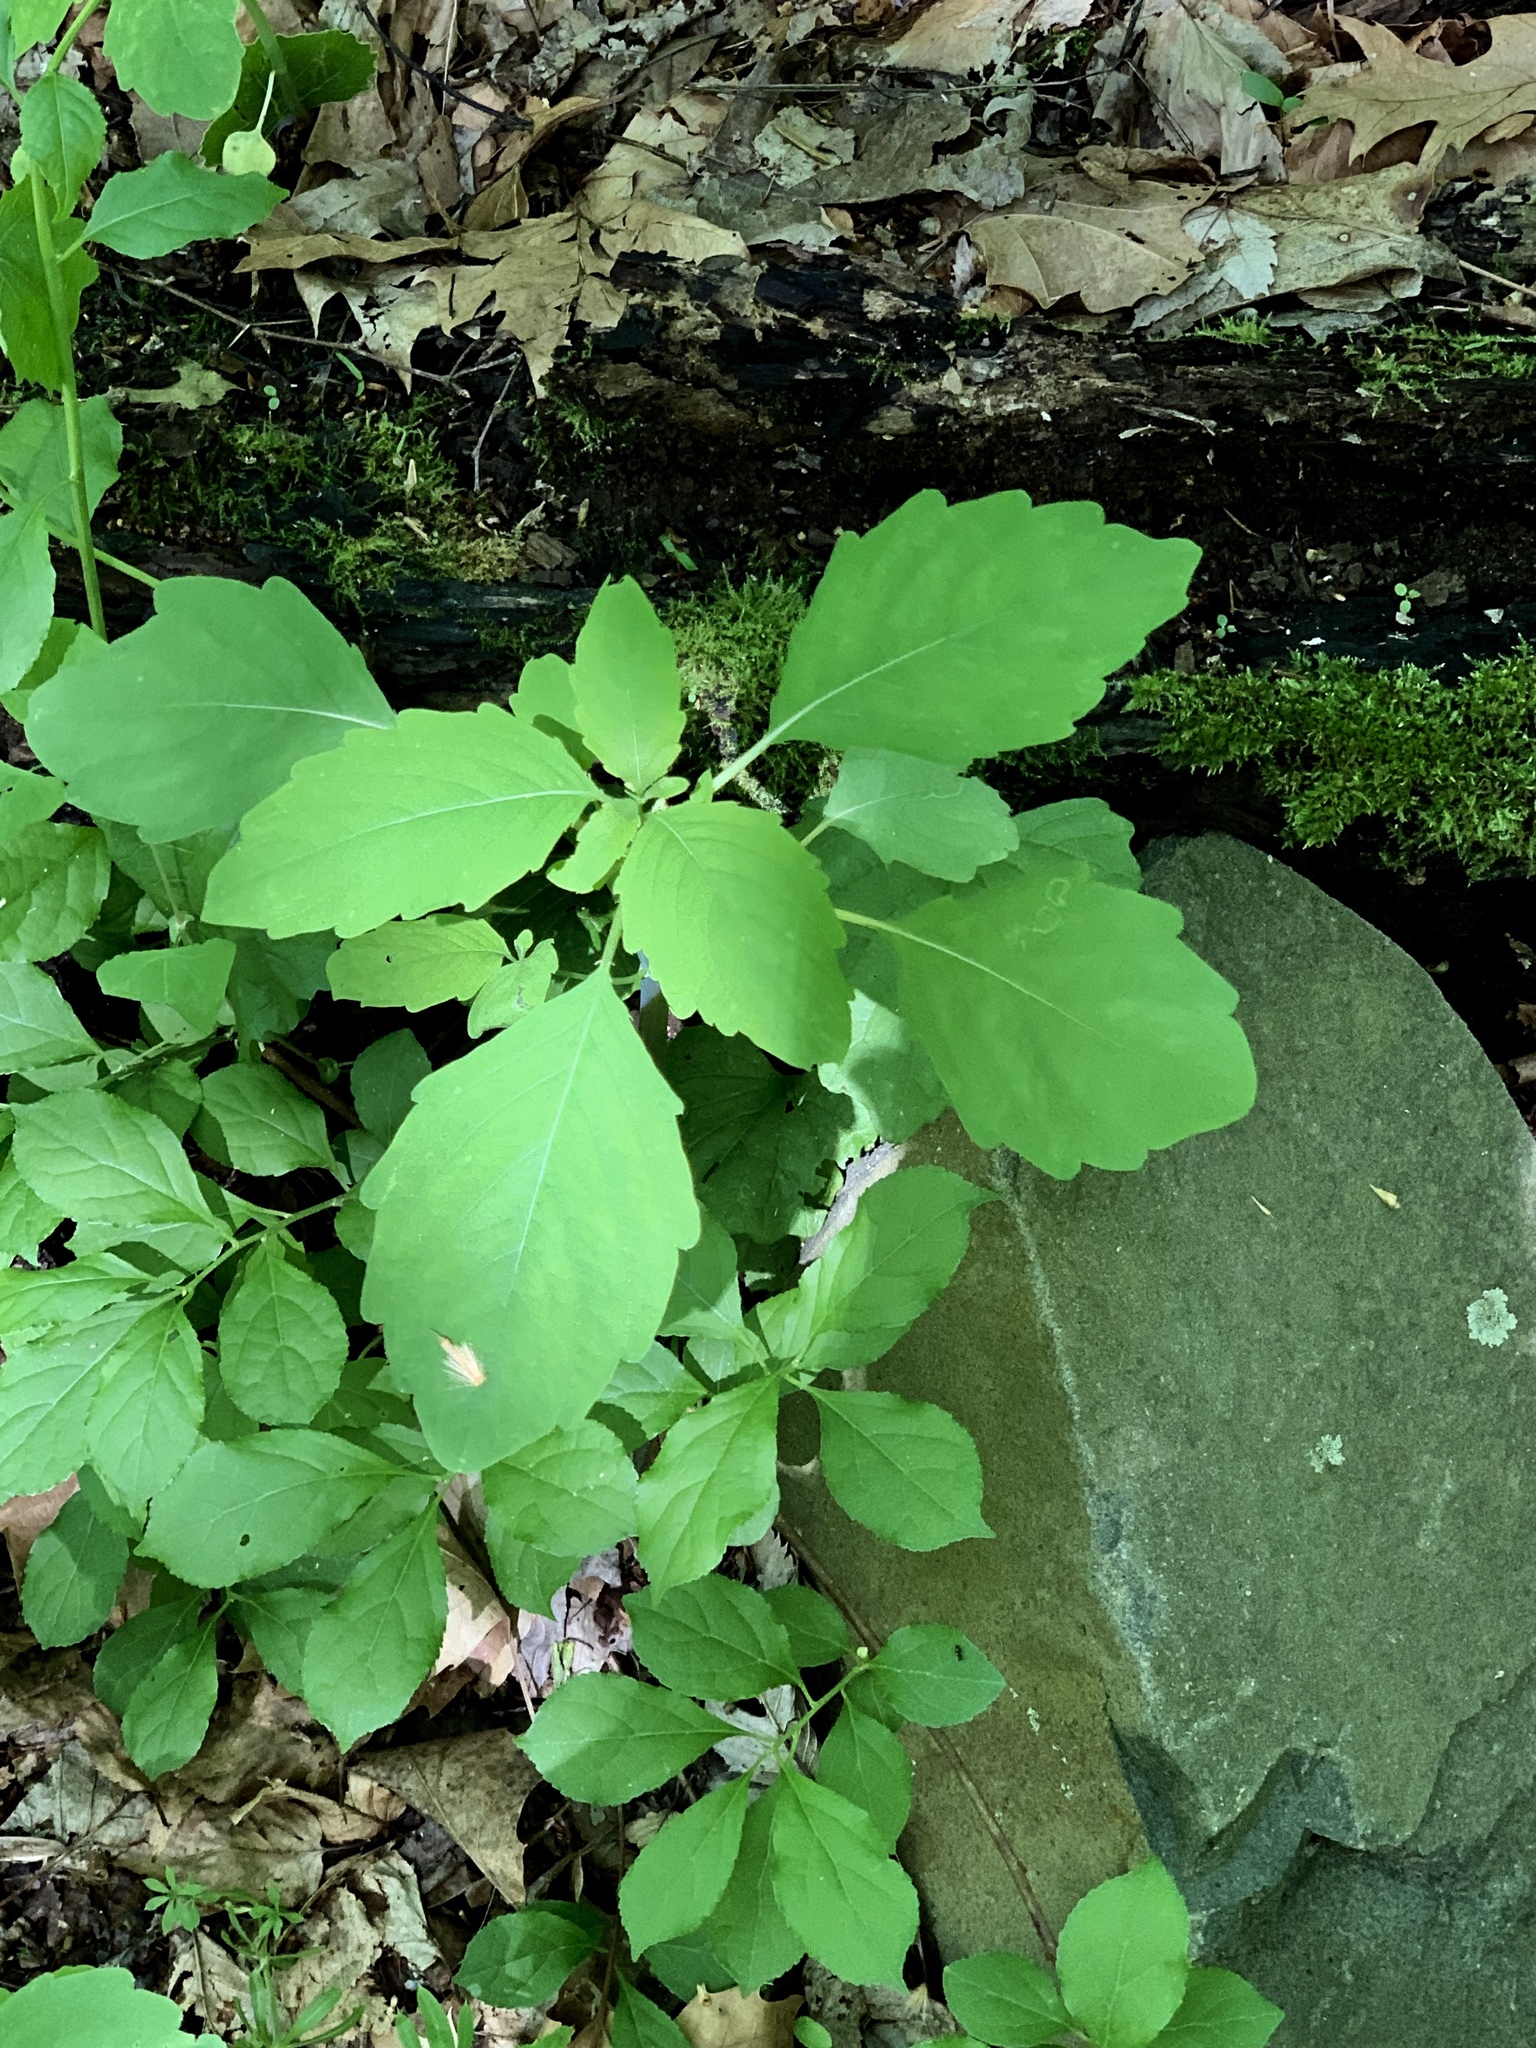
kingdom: Plantae
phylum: Tracheophyta
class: Magnoliopsida
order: Ericales
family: Balsaminaceae
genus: Impatiens
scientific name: Impatiens capensis
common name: Orange balsam
